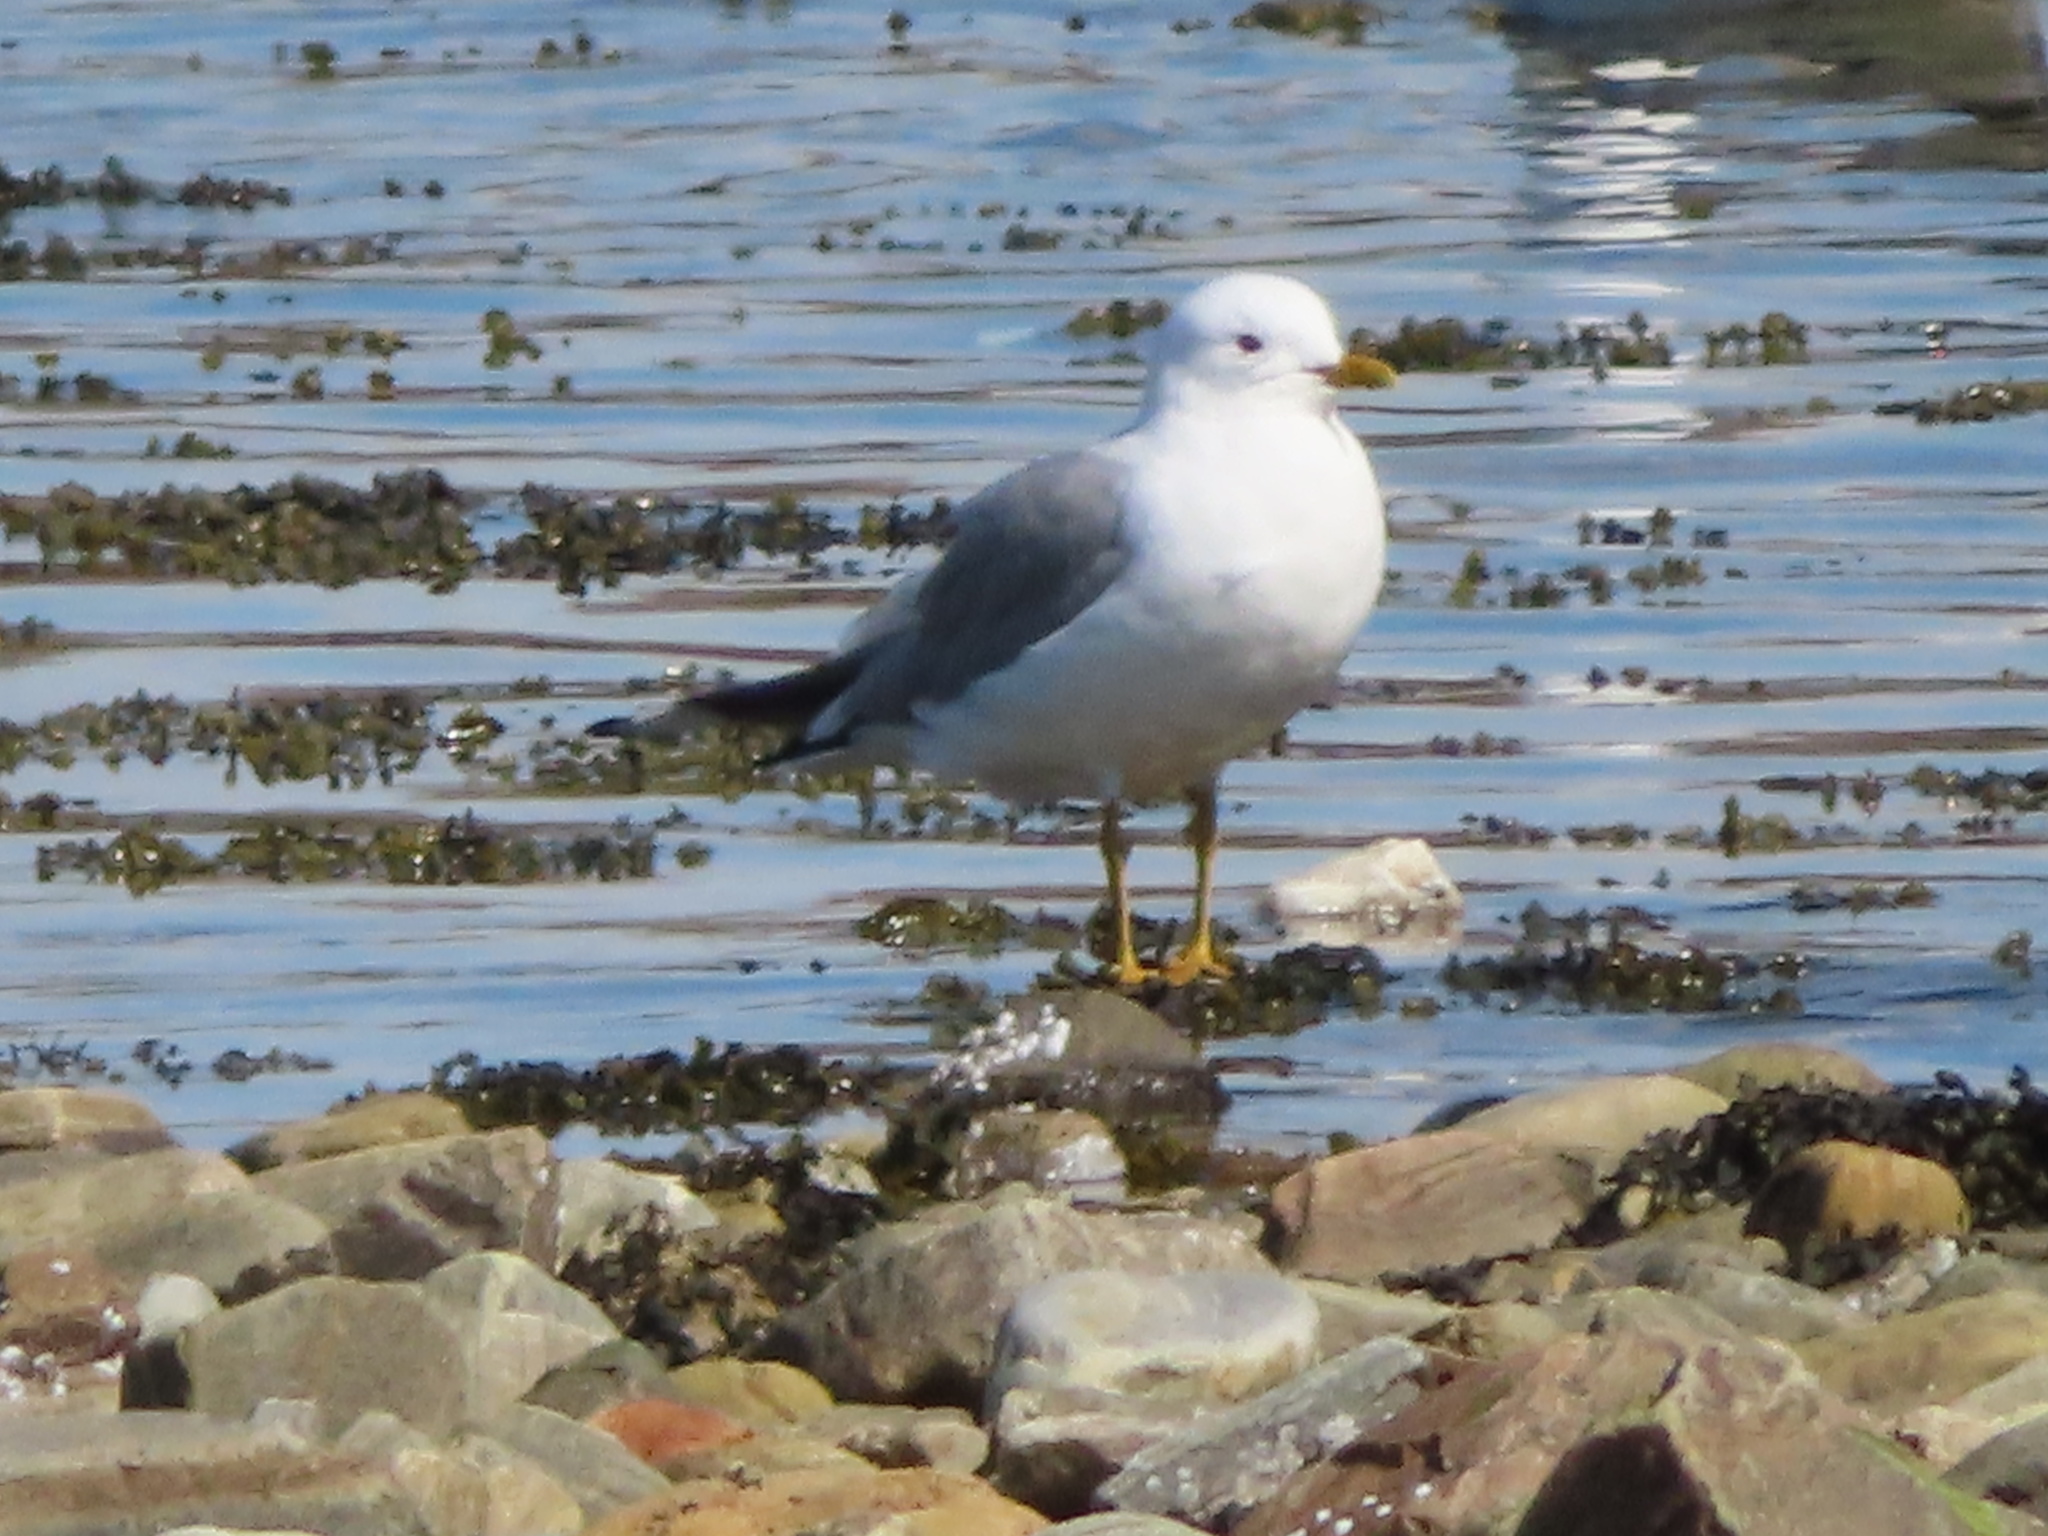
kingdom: Animalia
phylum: Chordata
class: Aves
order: Charadriiformes
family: Laridae
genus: Larus
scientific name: Larus canus
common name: Mew gull
